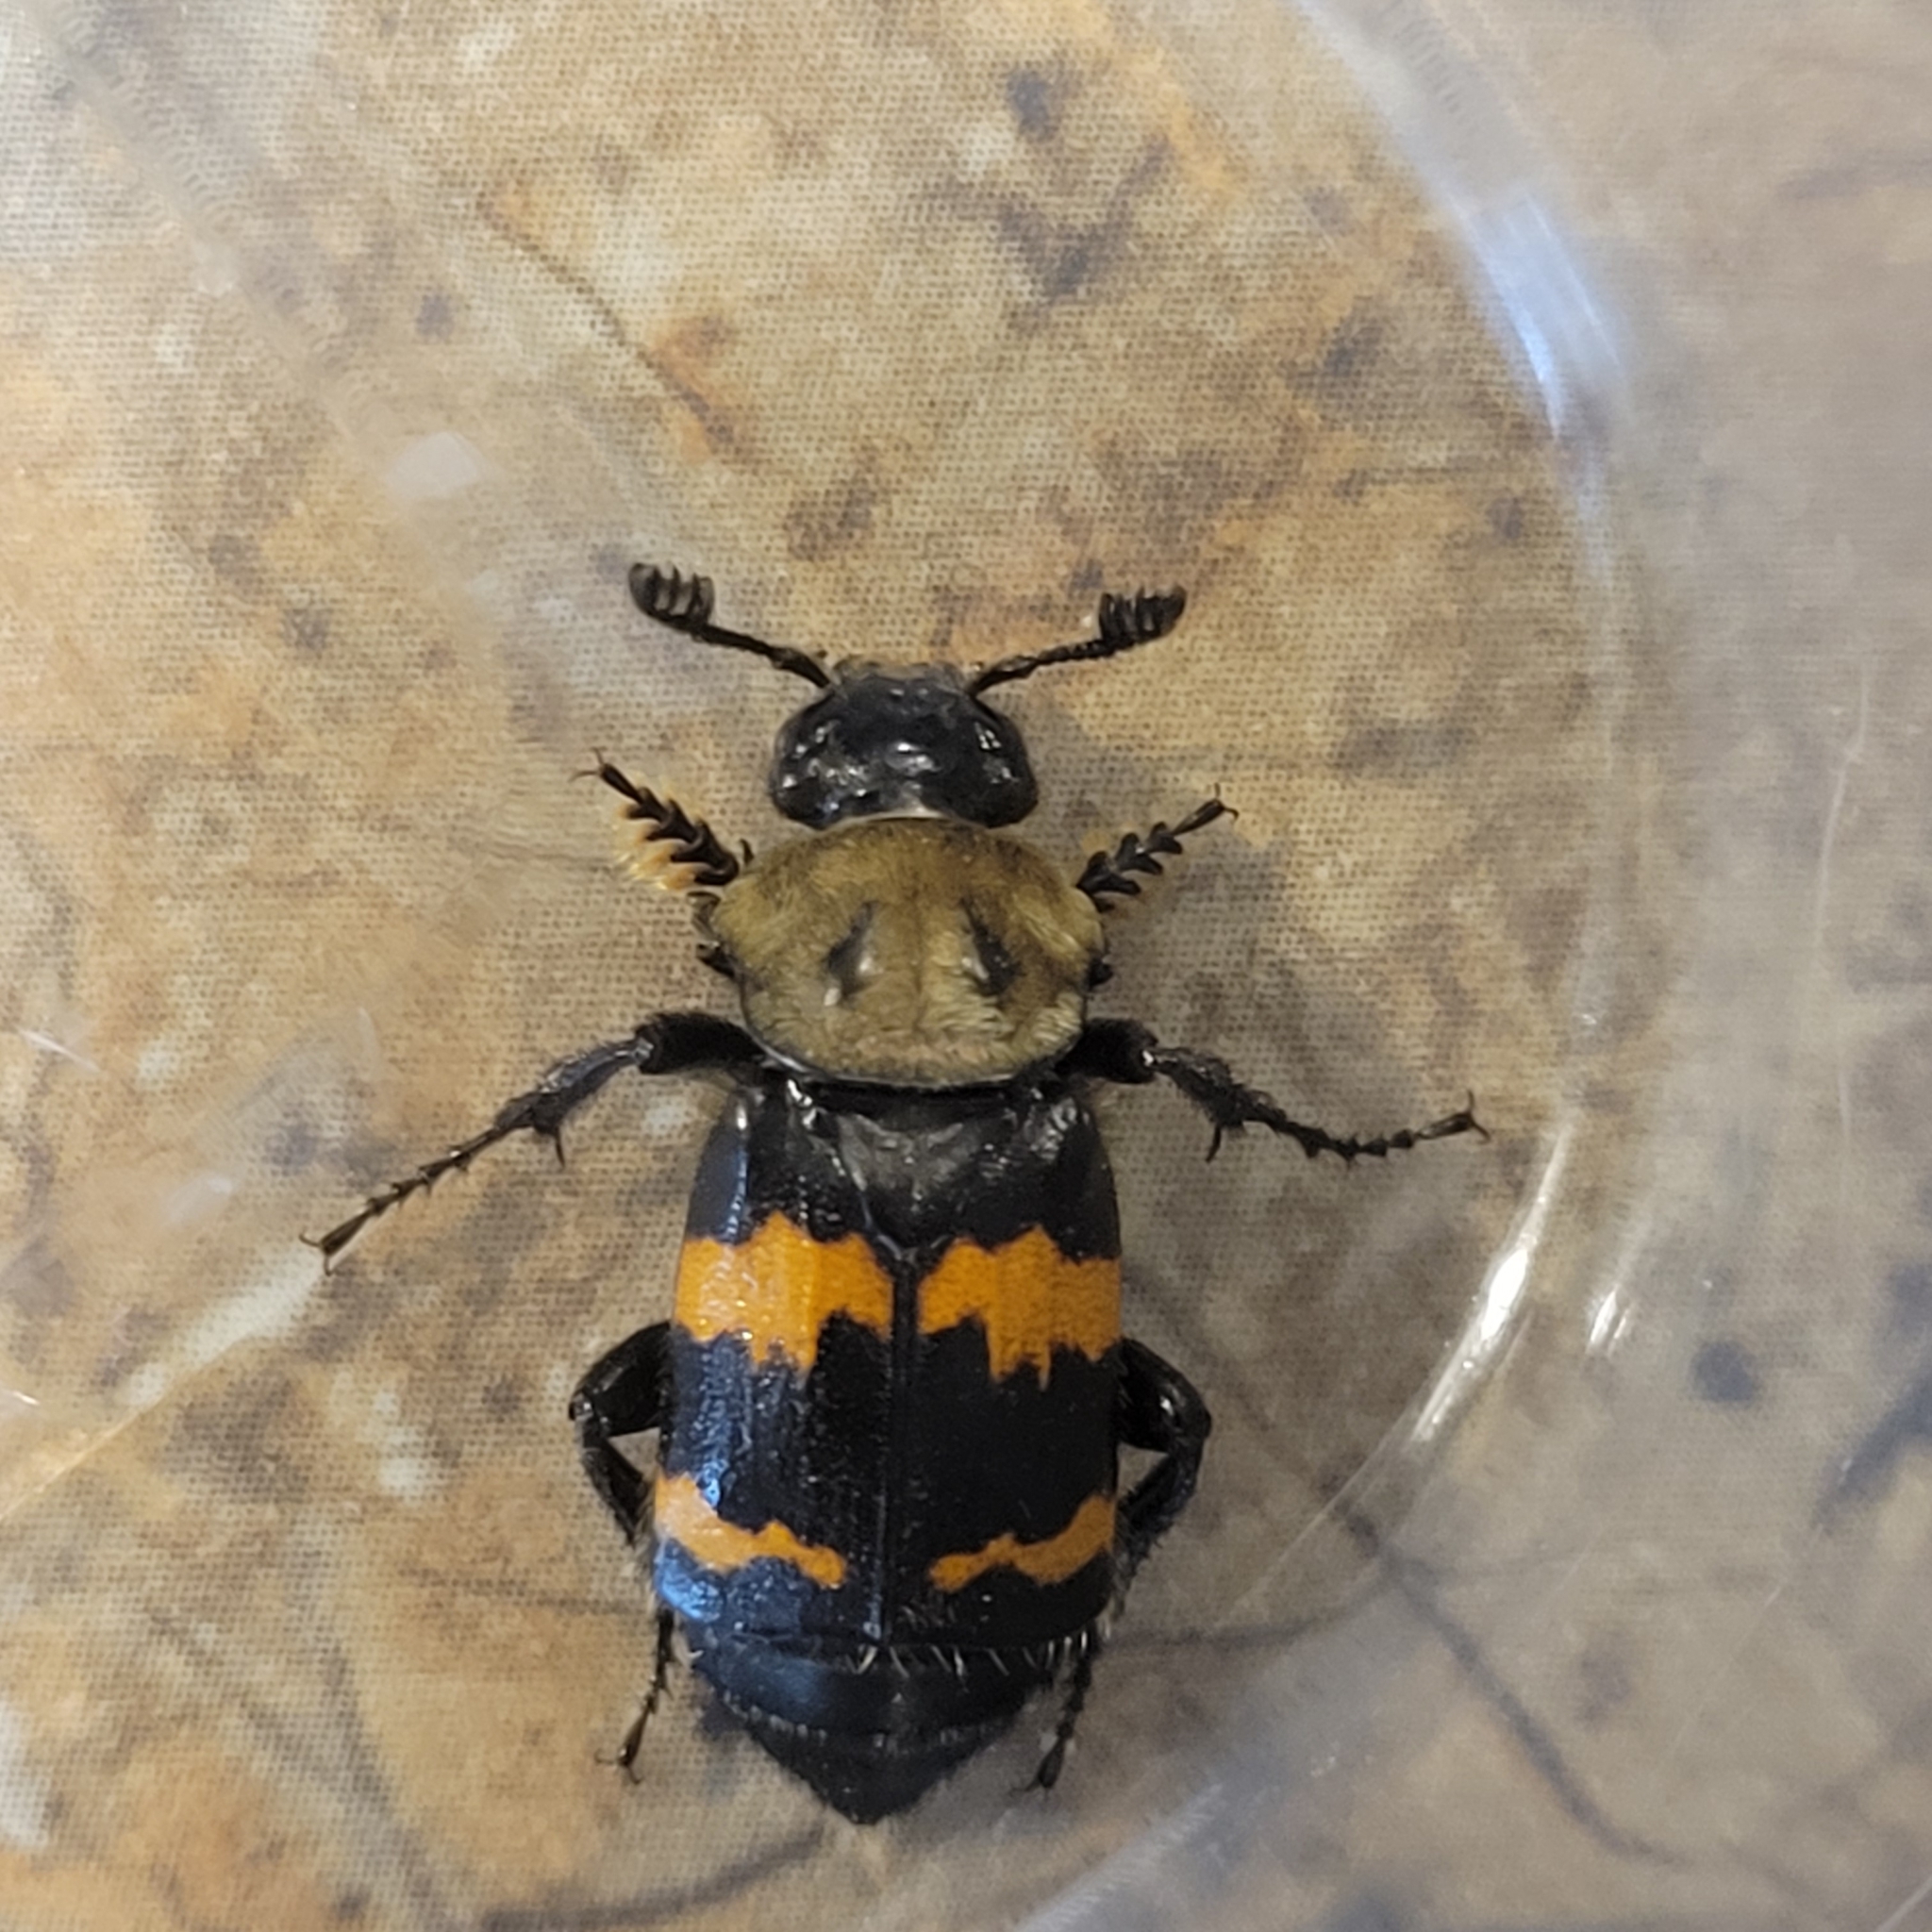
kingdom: Animalia
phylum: Arthropoda
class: Insecta
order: Coleoptera
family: Staphylinidae
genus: Nicrophorus
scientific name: Nicrophorus tomentosus
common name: Tomentose burying beetle
